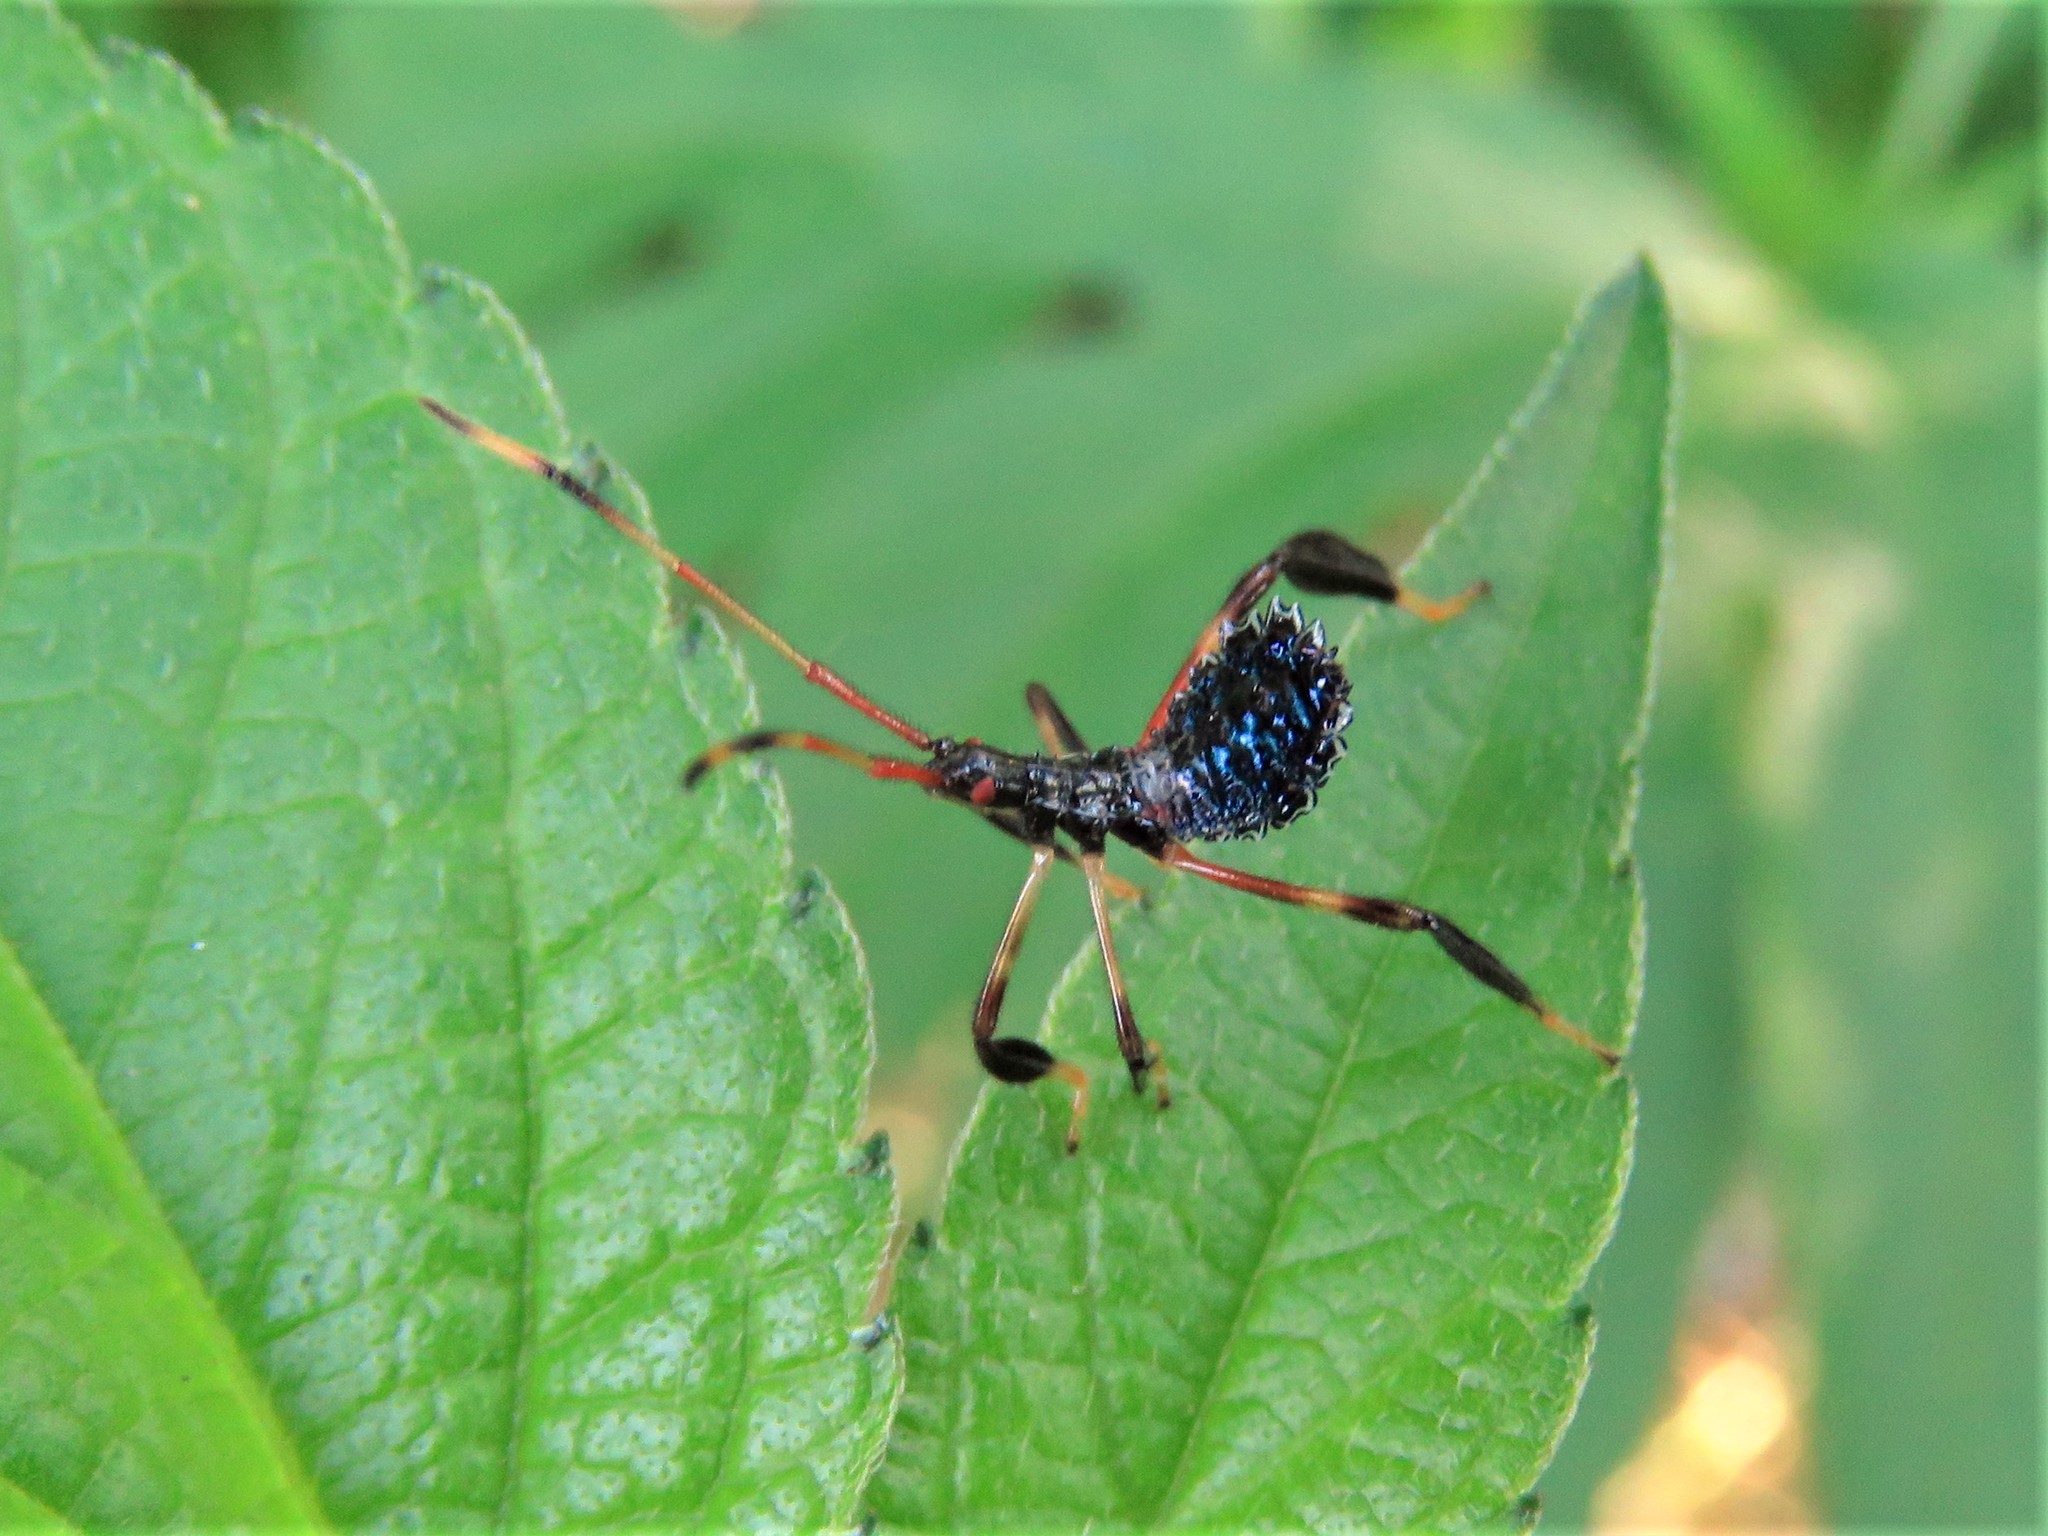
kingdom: Animalia
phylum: Arthropoda
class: Insecta
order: Hemiptera
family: Coreidae
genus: Acanthocephala
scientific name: Acanthocephala terminalis
